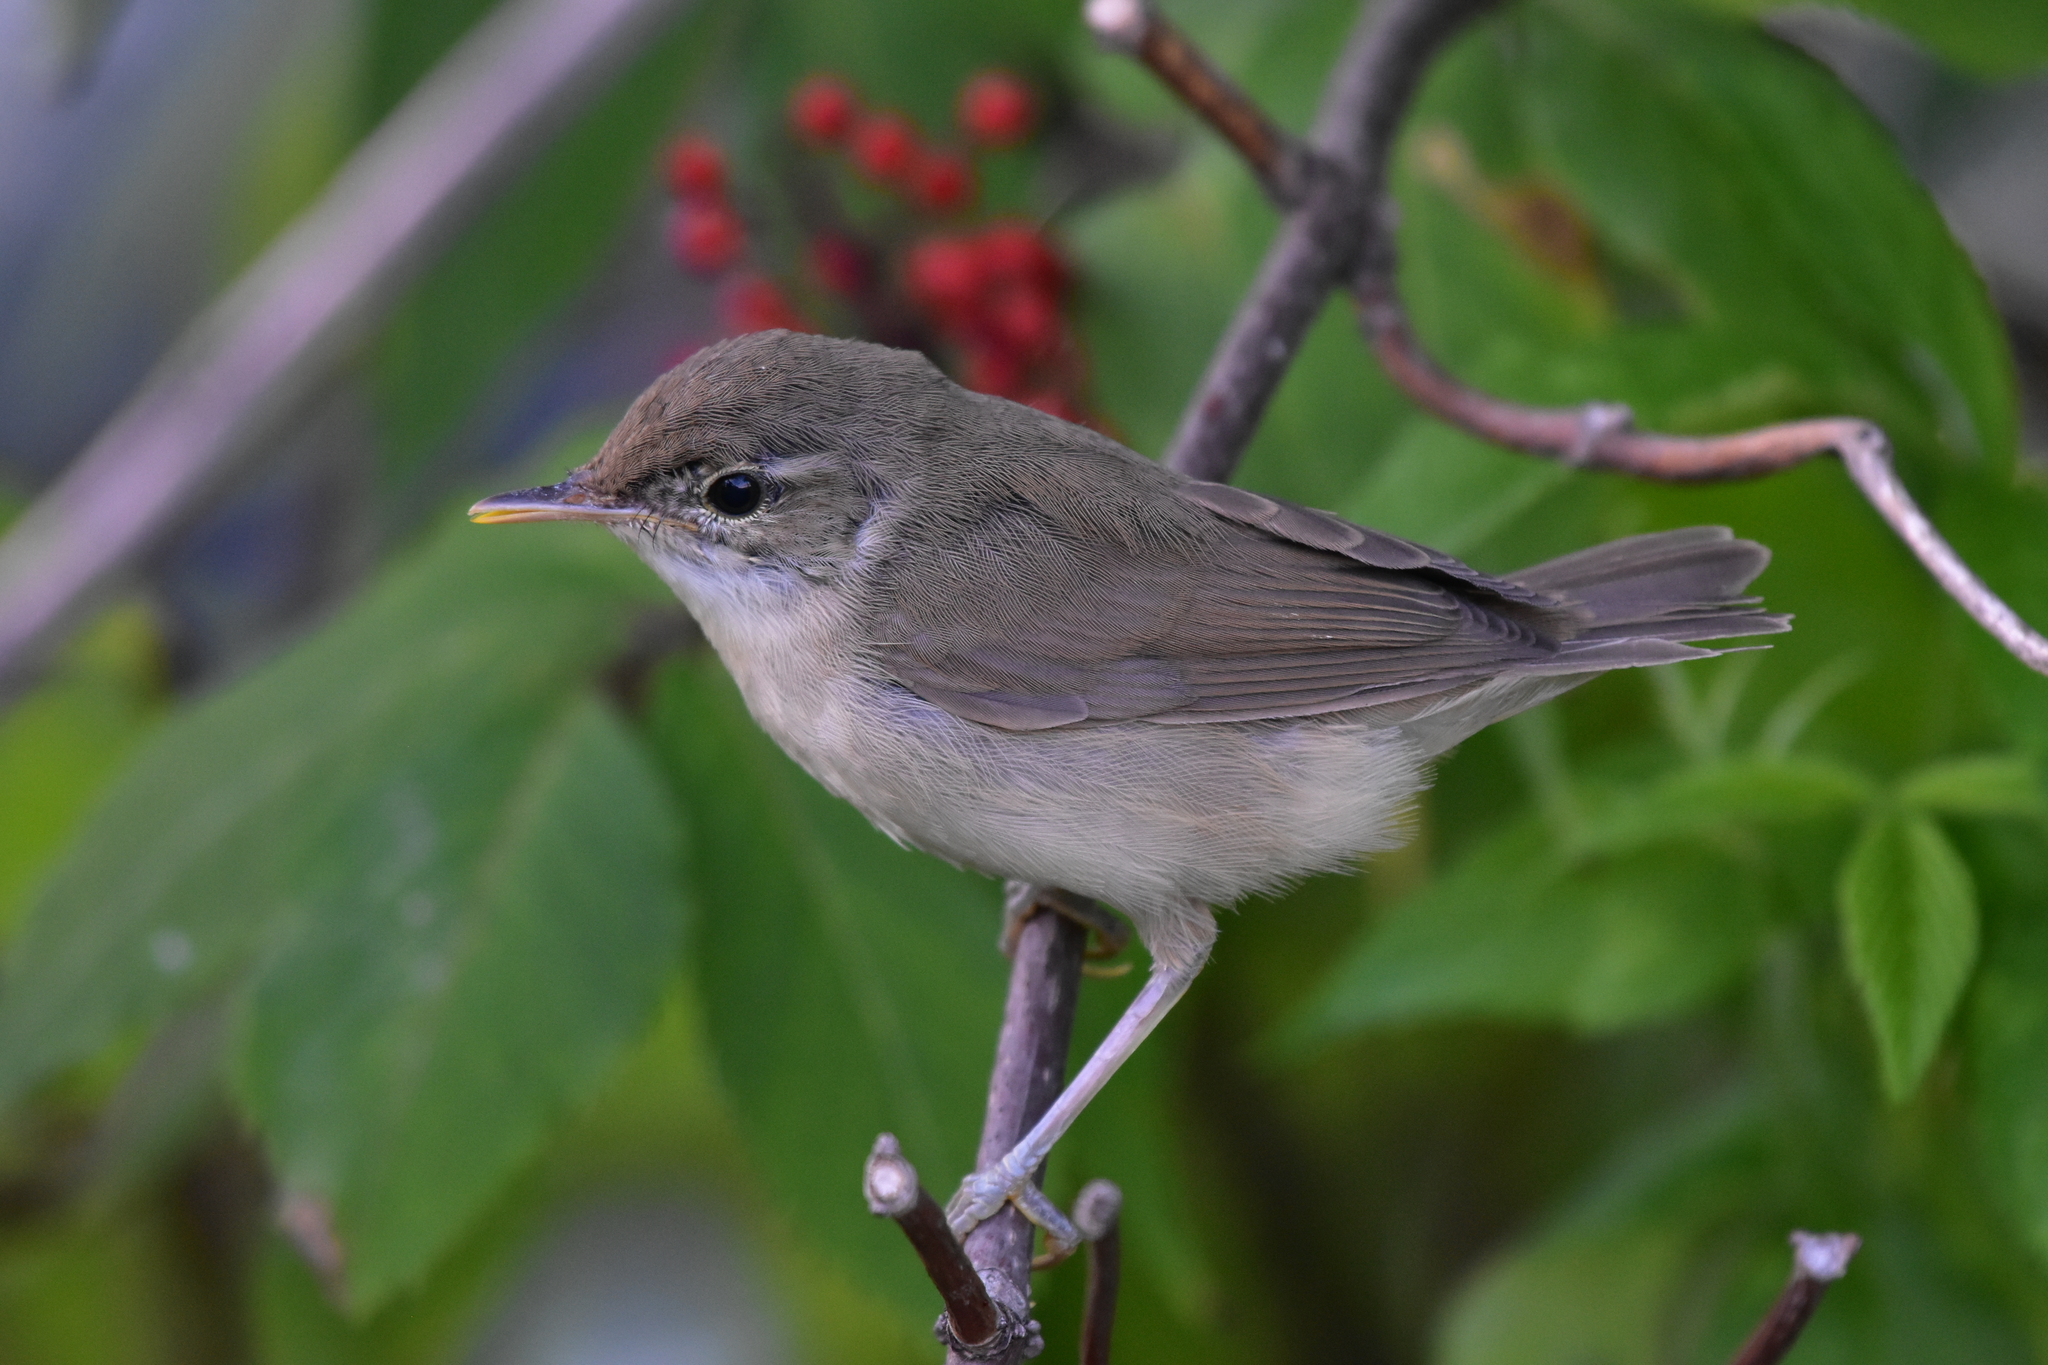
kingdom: Animalia
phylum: Chordata
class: Aves
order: Passeriformes
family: Acrocephalidae
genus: Acrocephalus
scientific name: Acrocephalus dumetorum
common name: Blyth's reed warbler
